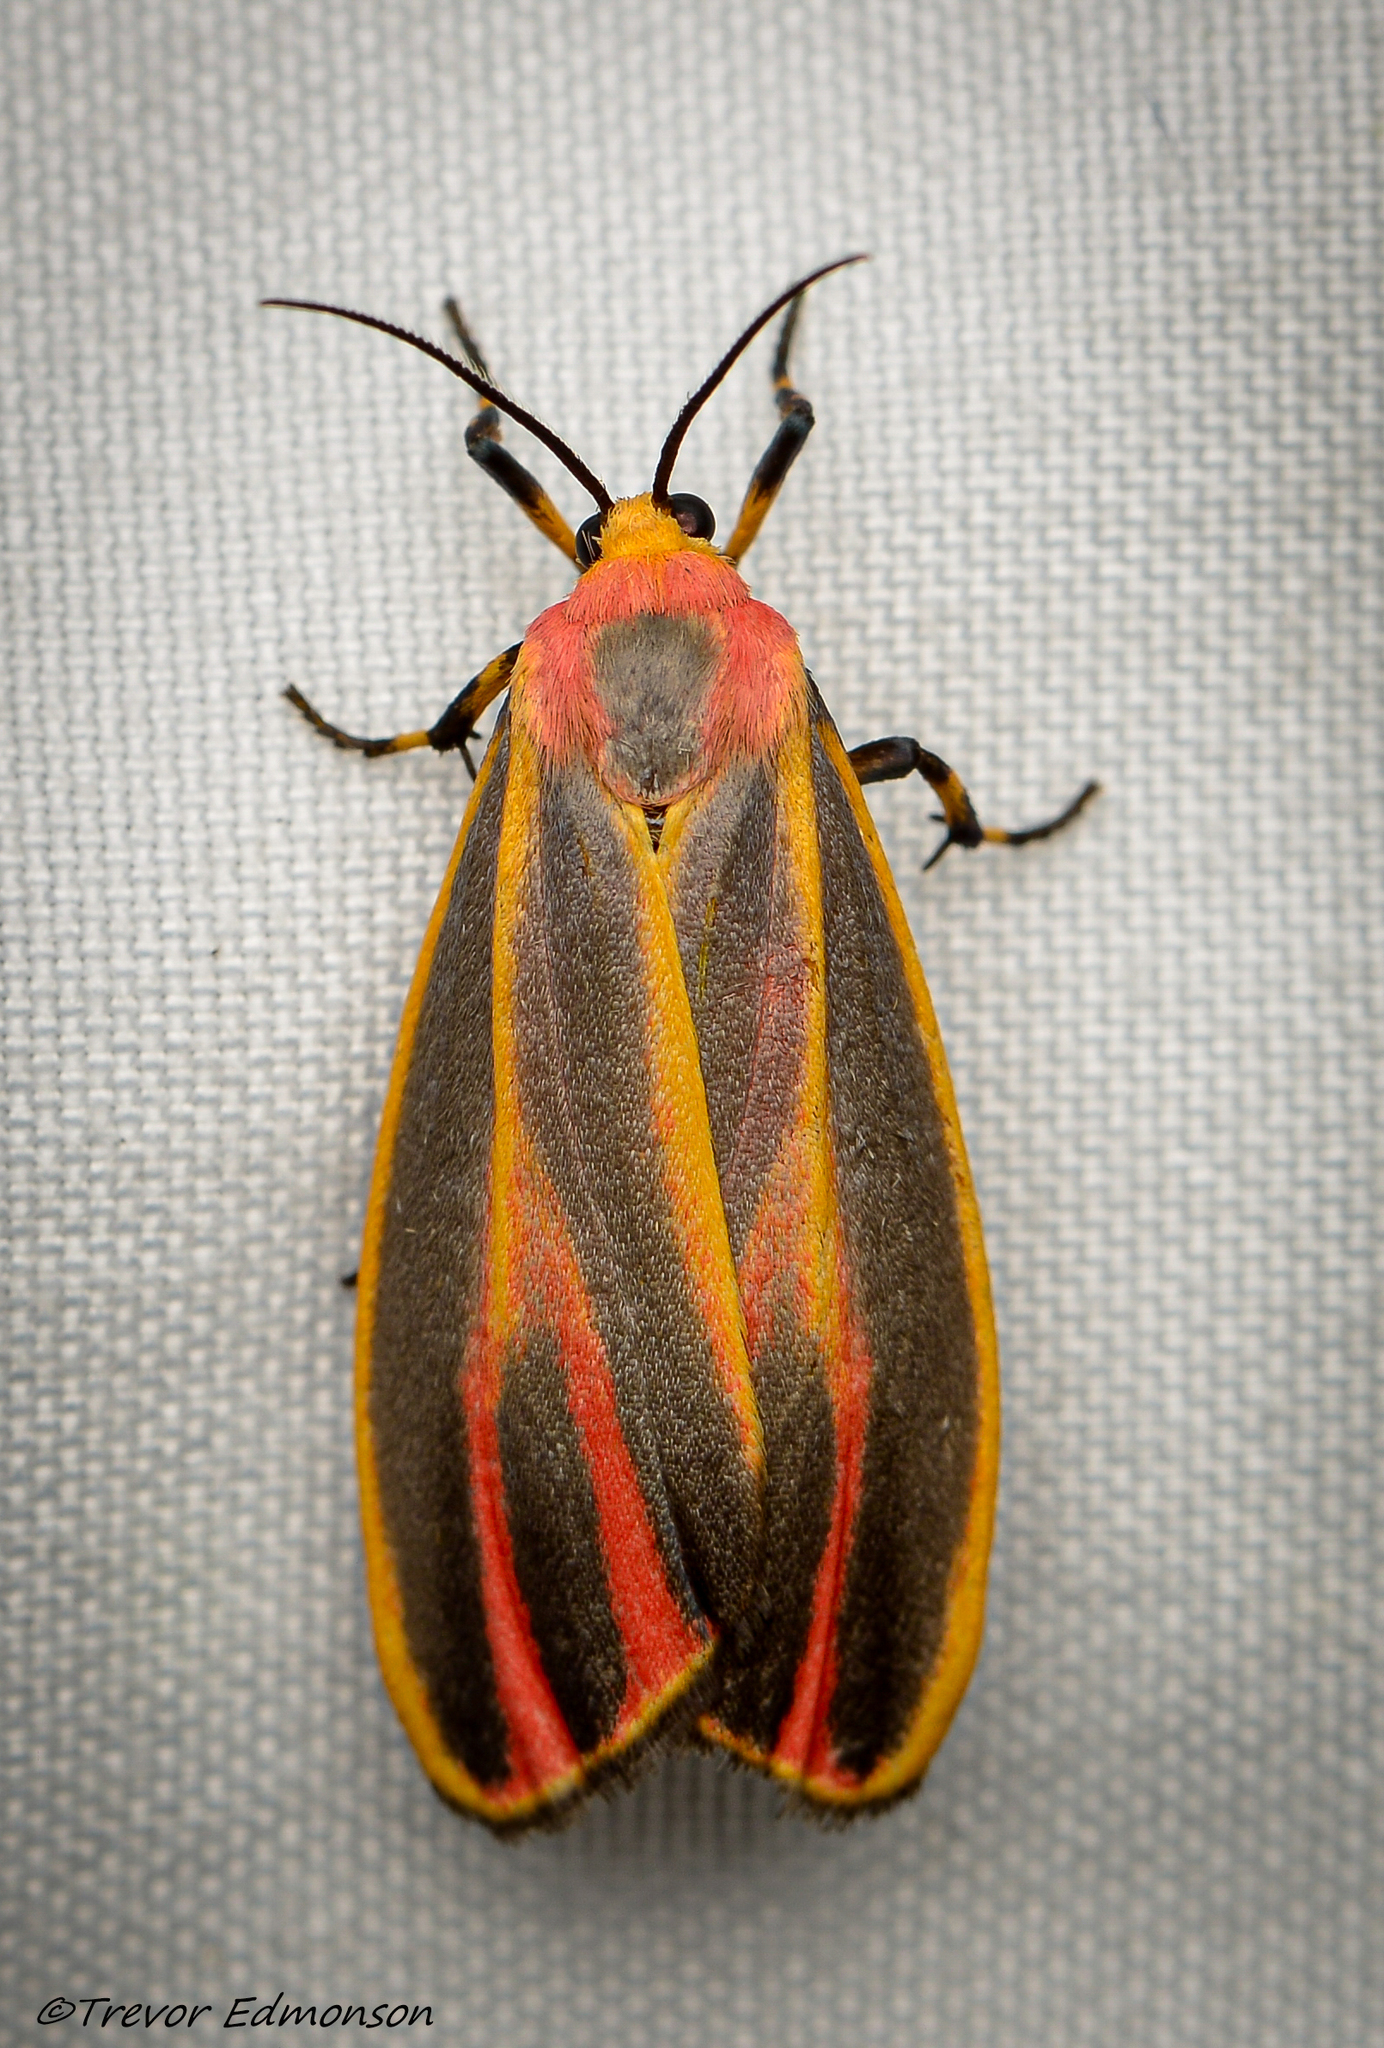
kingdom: Animalia
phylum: Arthropoda
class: Insecta
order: Lepidoptera
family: Erebidae
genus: Hypoprepia
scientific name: Hypoprepia fucosa
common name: Painted lichen moth
